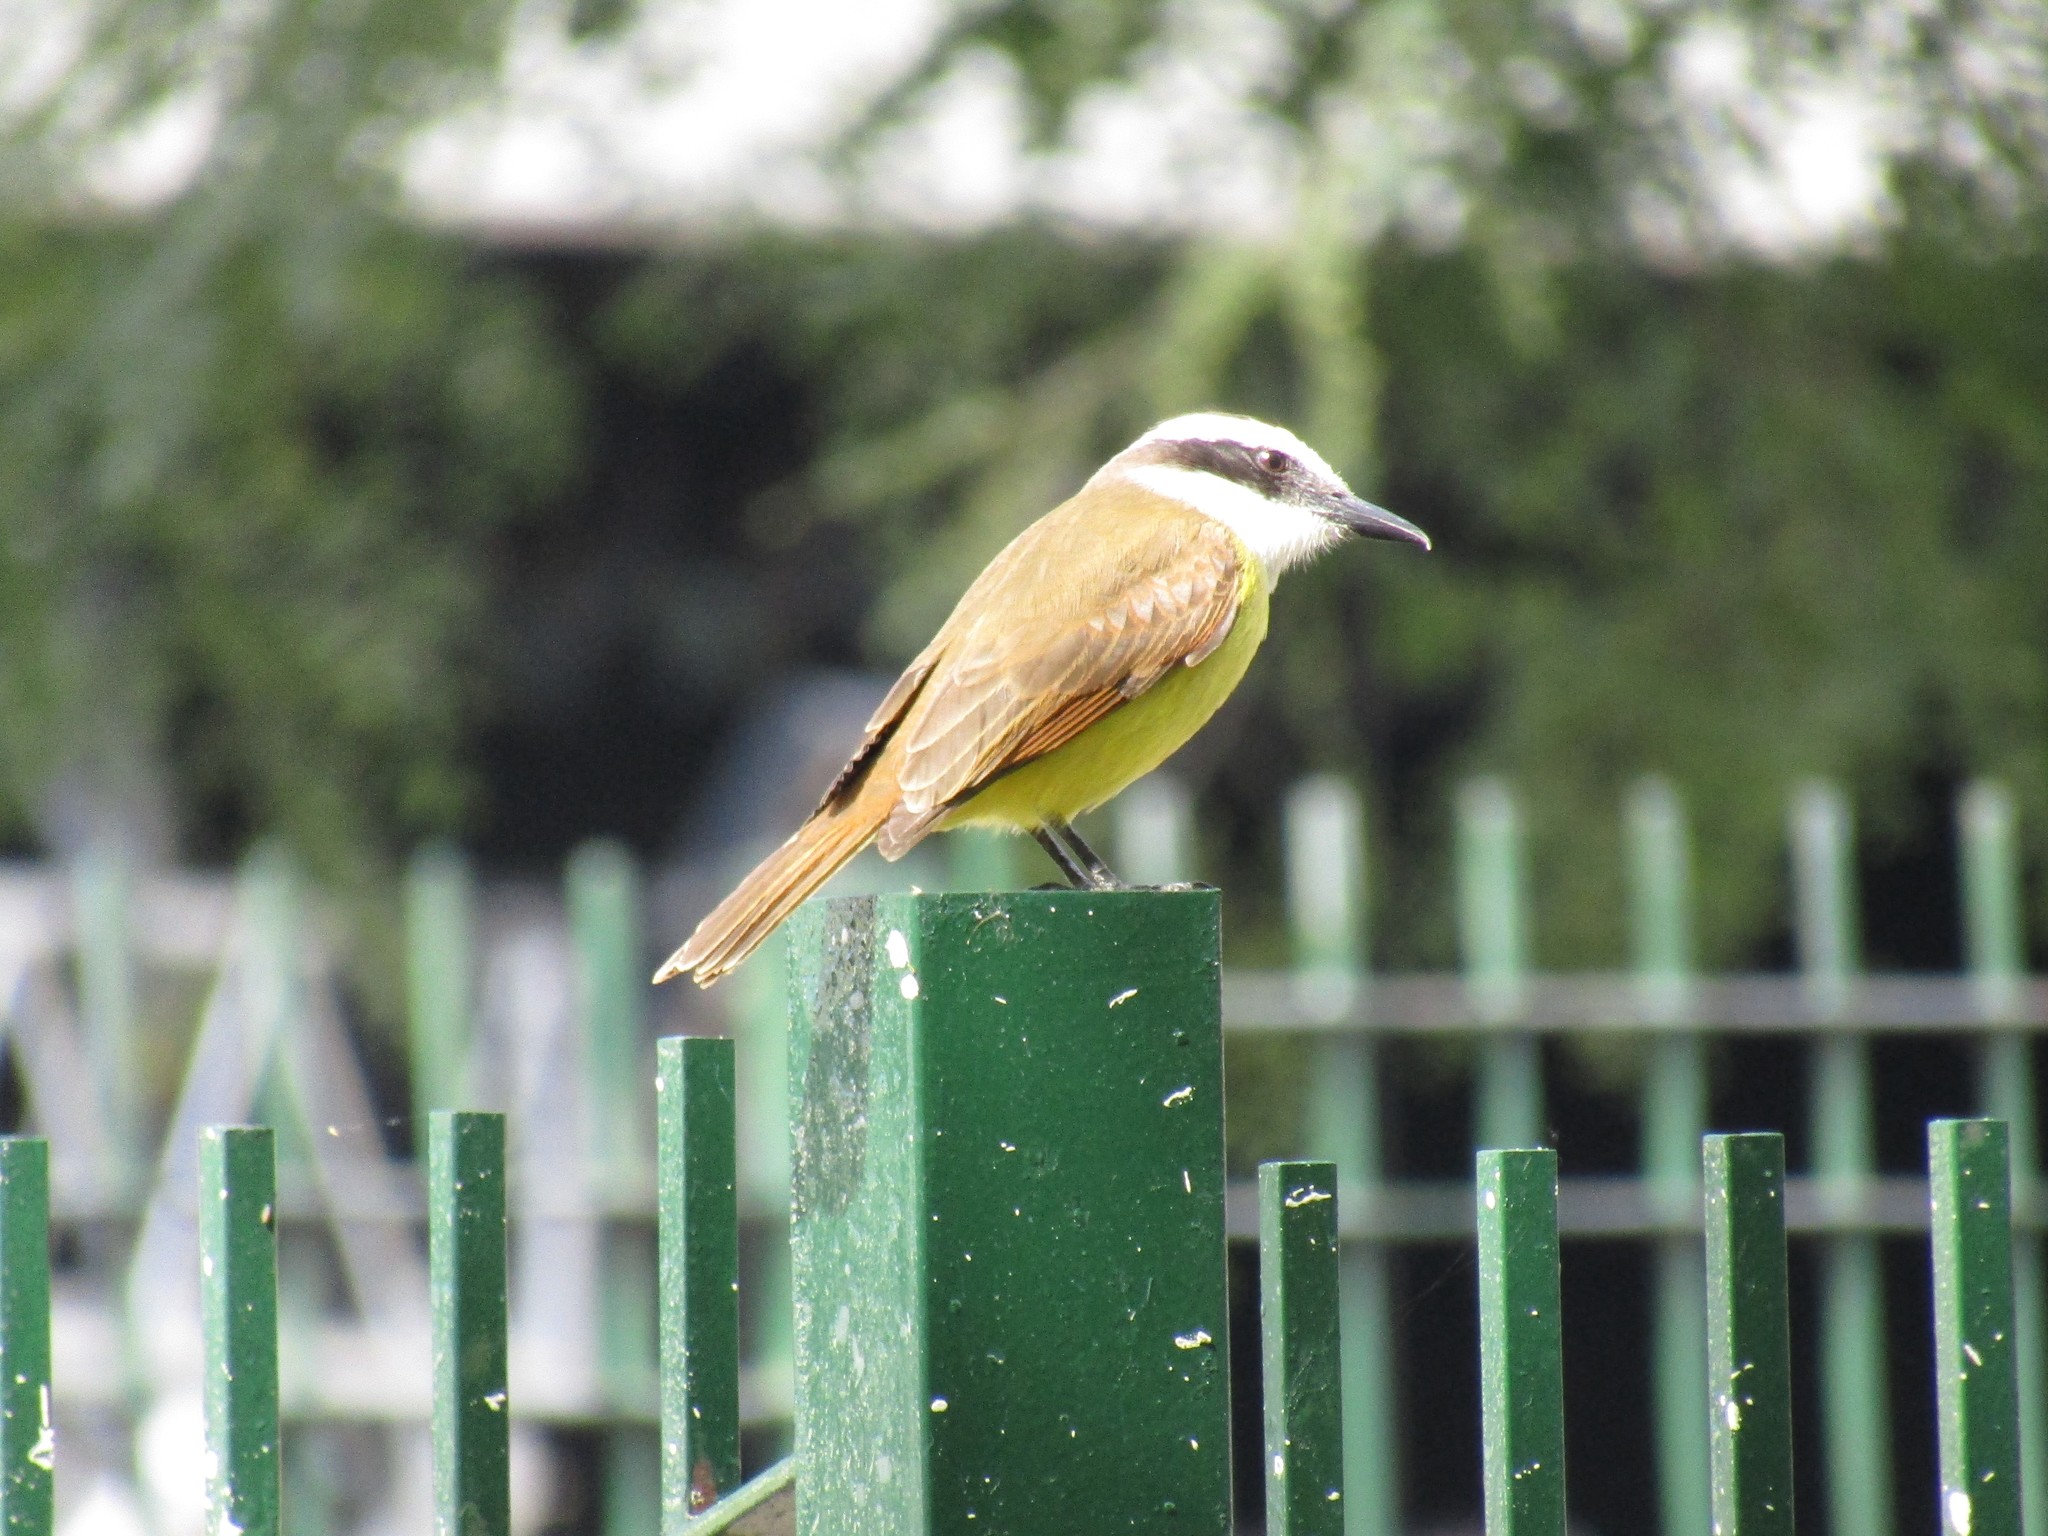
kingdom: Animalia
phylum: Chordata
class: Aves
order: Passeriformes
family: Tyrannidae
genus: Pitangus
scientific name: Pitangus sulphuratus
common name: Great kiskadee
